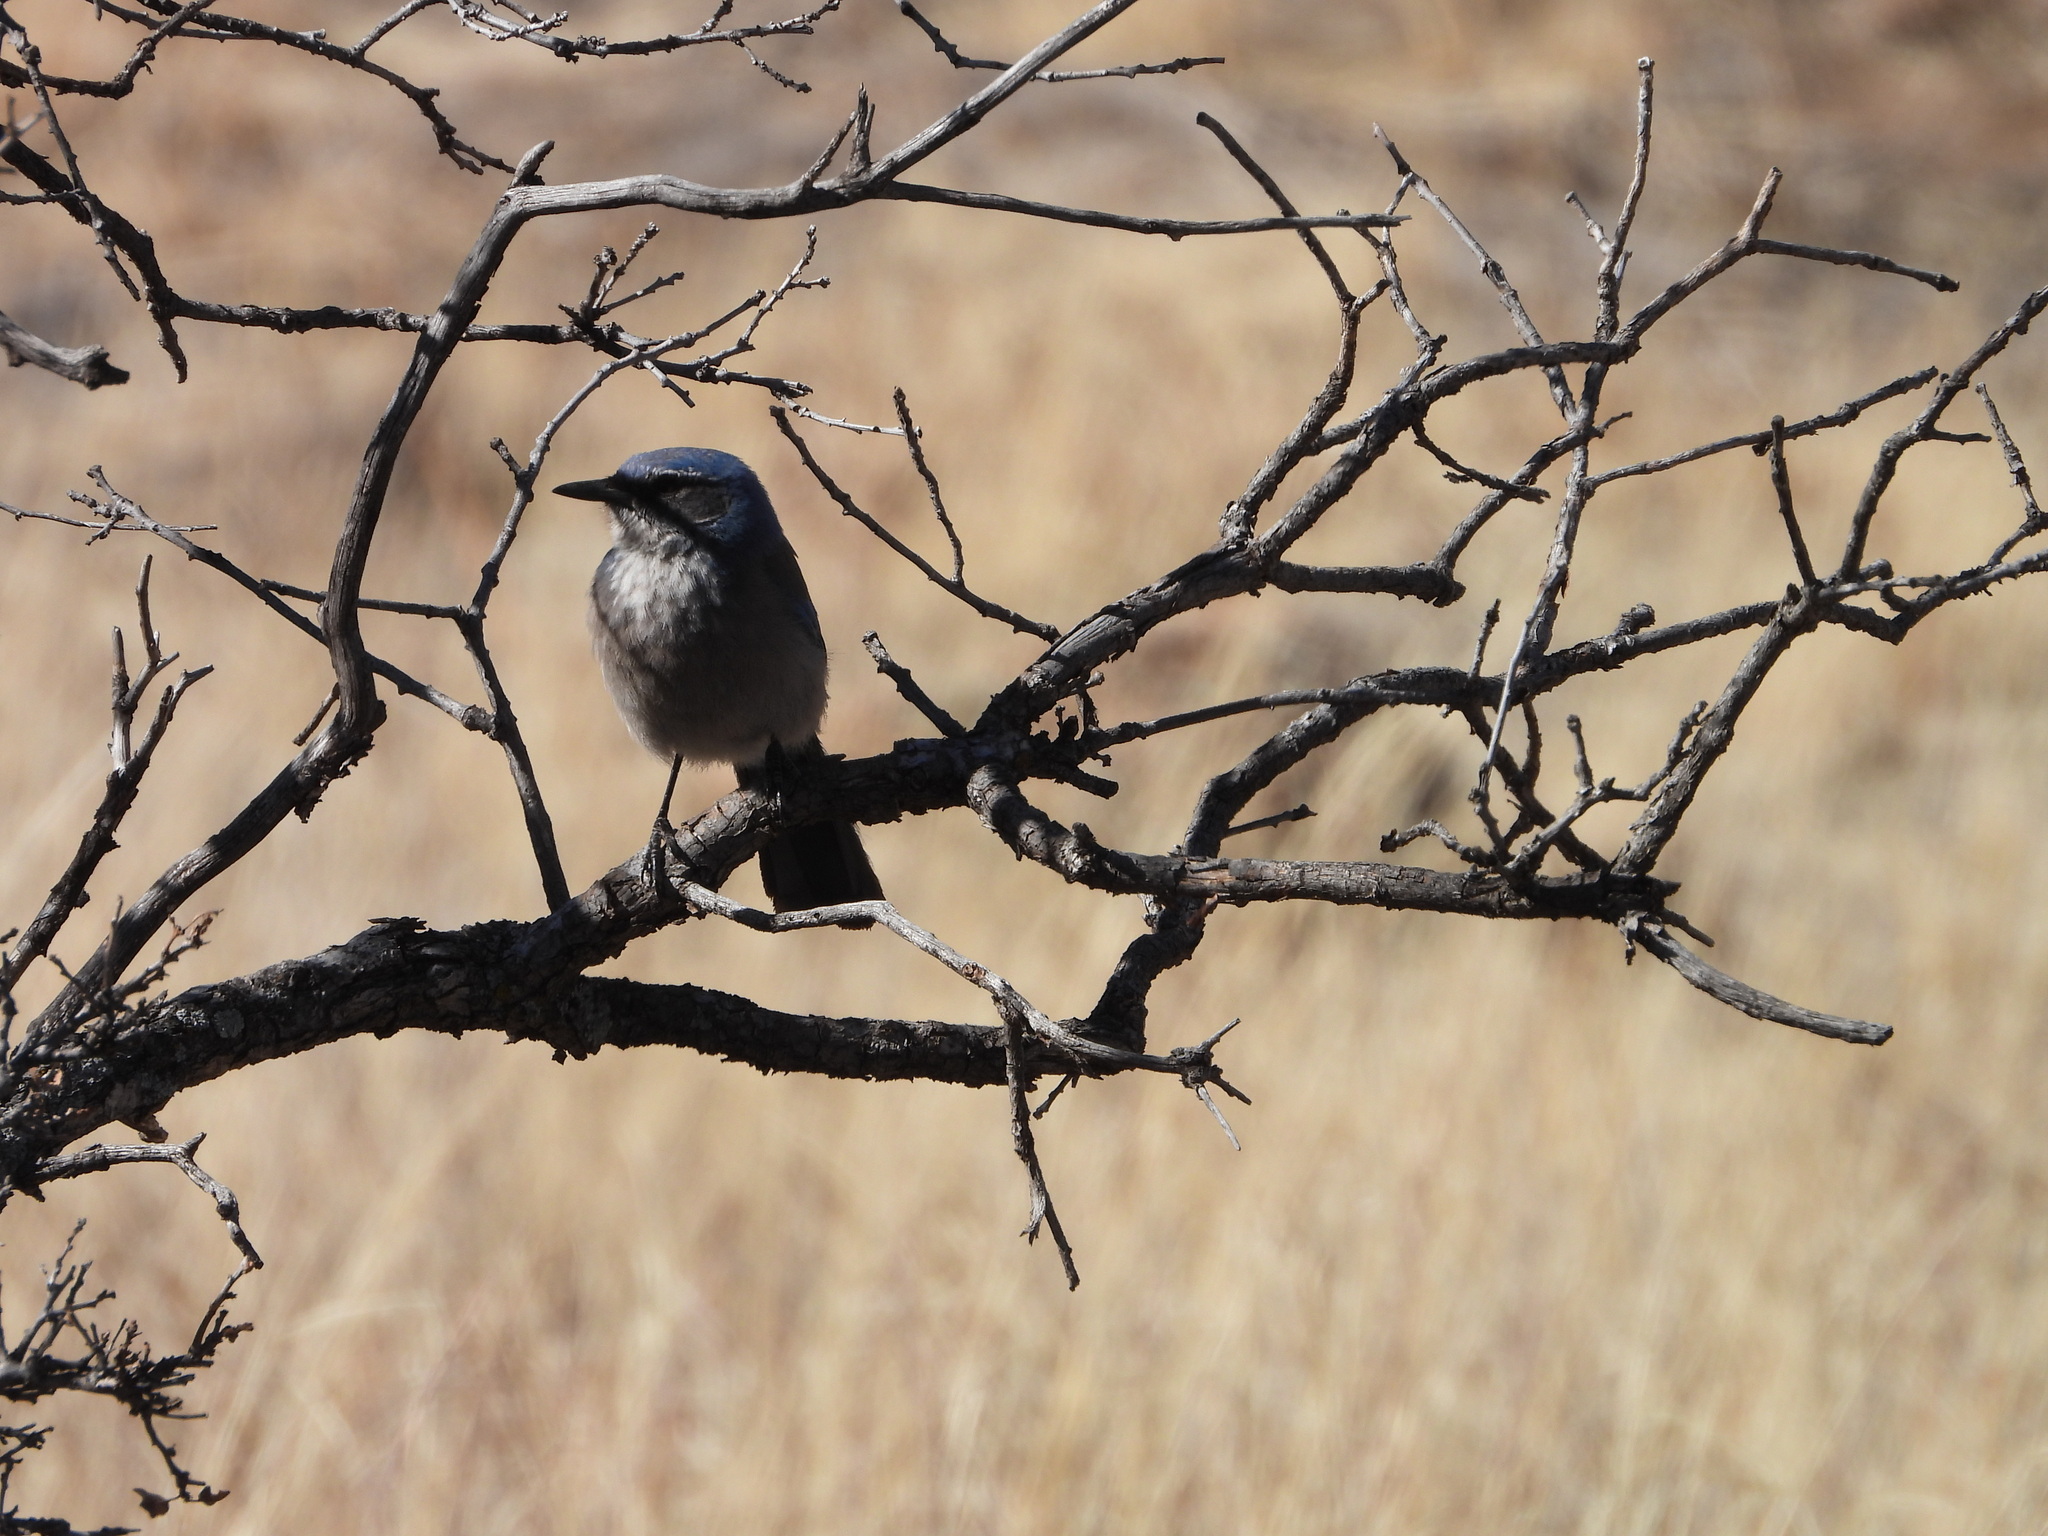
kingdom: Animalia
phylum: Chordata
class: Aves
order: Passeriformes
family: Corvidae
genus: Aphelocoma
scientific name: Aphelocoma woodhouseii
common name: Woodhouse's scrub-jay
